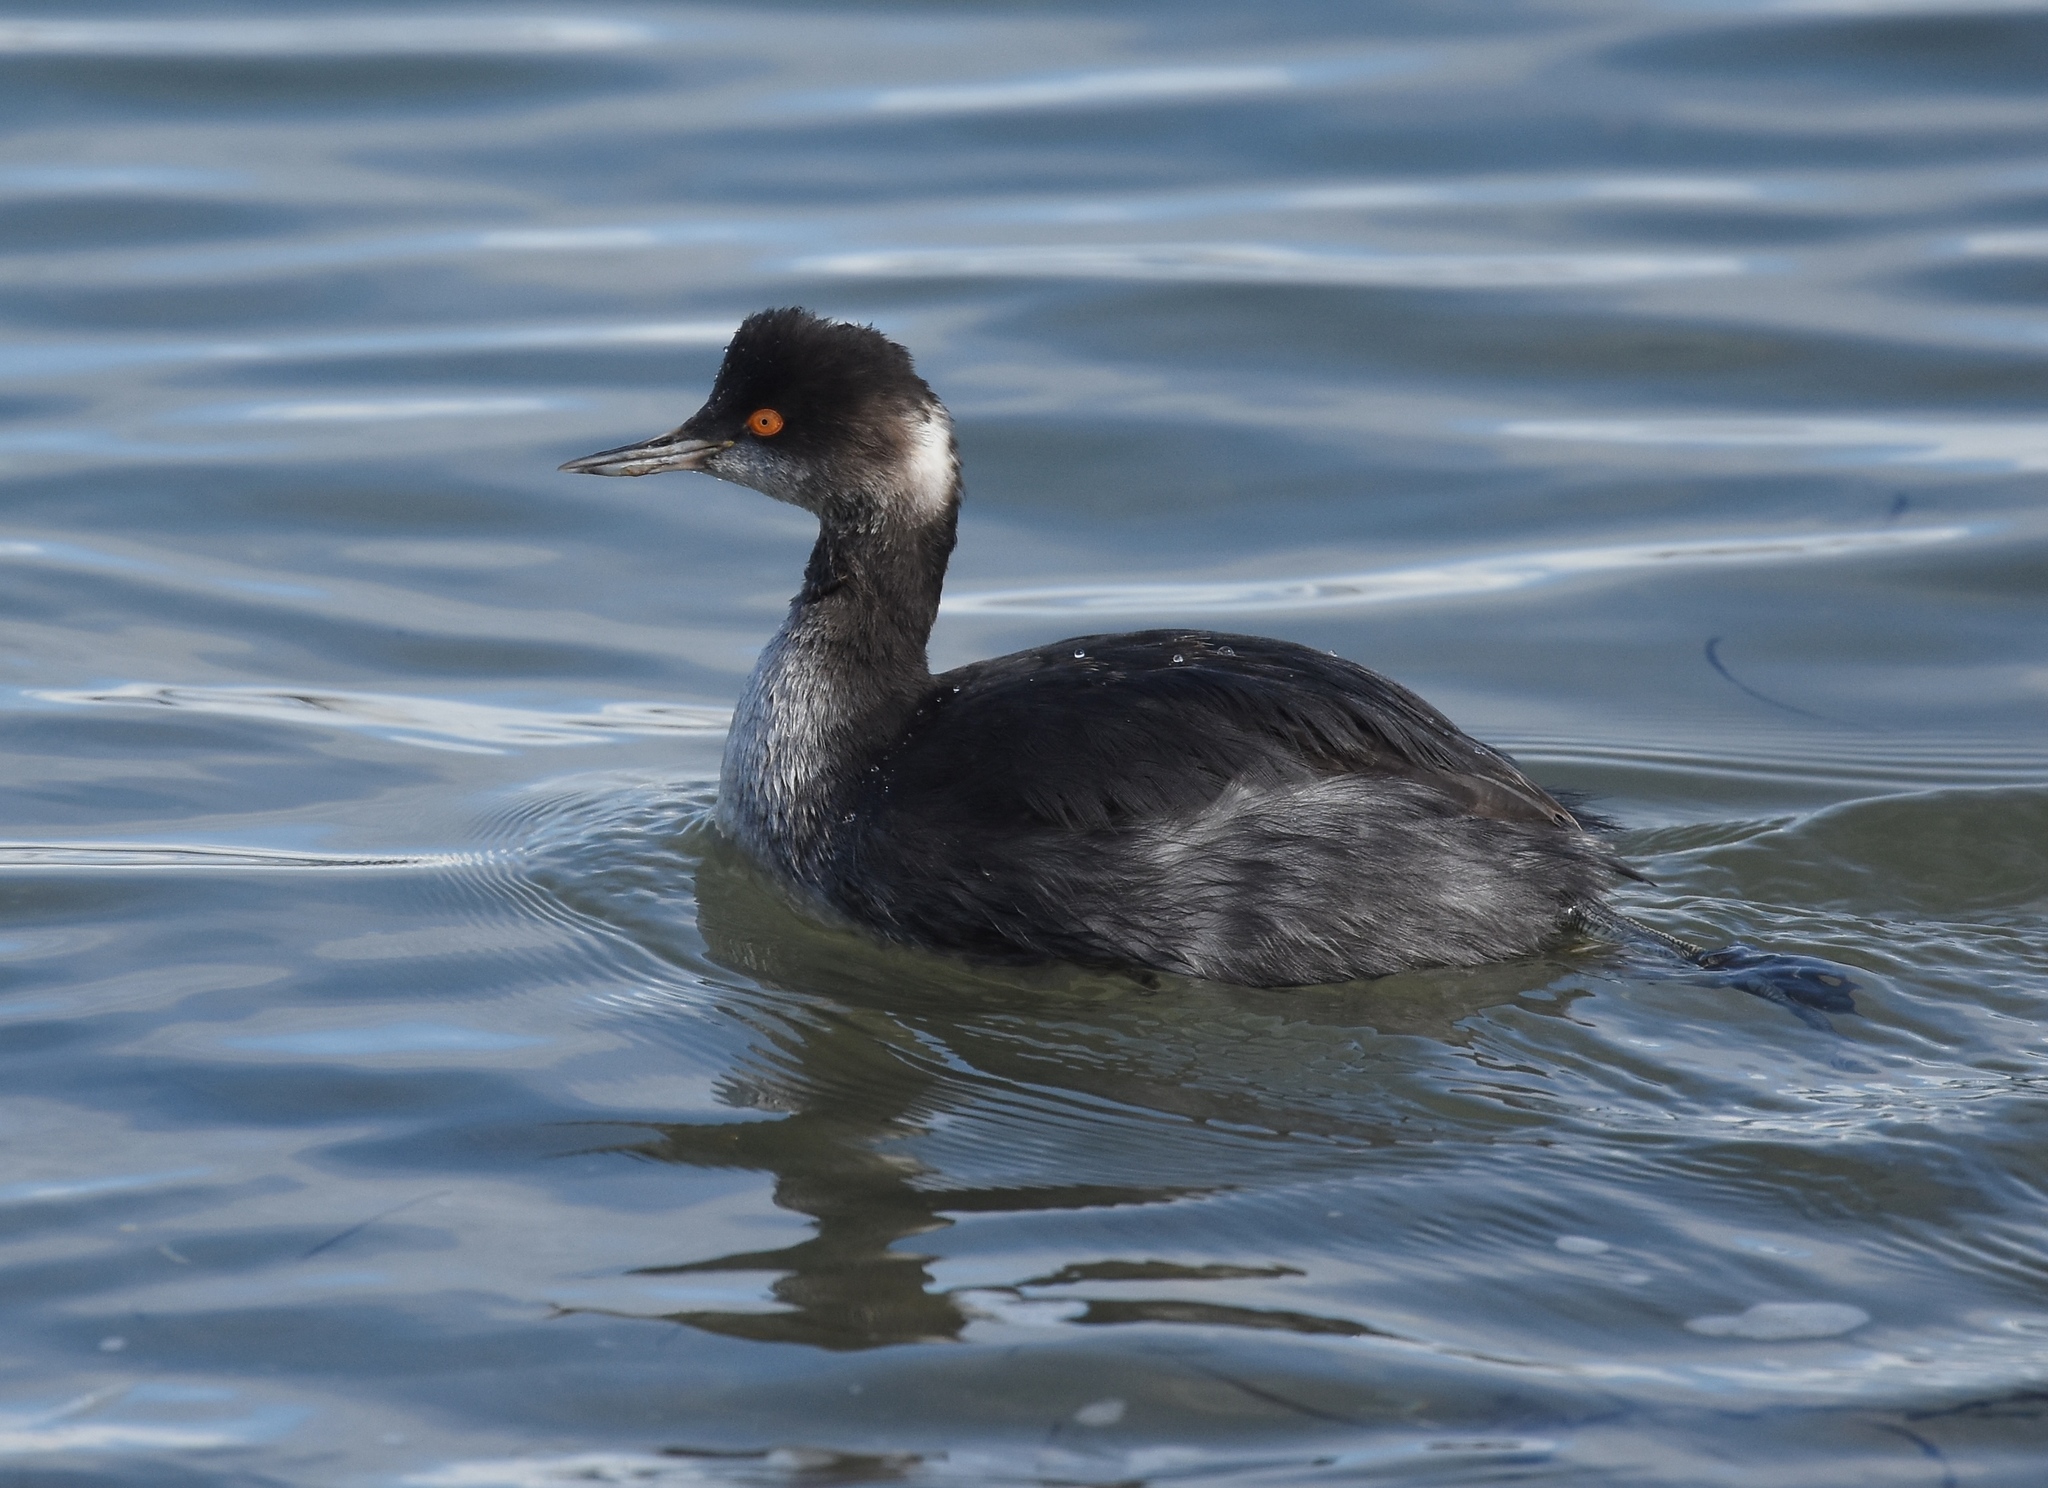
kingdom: Animalia
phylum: Chordata
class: Aves
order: Podicipediformes
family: Podicipedidae
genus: Podiceps
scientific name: Podiceps nigricollis
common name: Black-necked grebe
